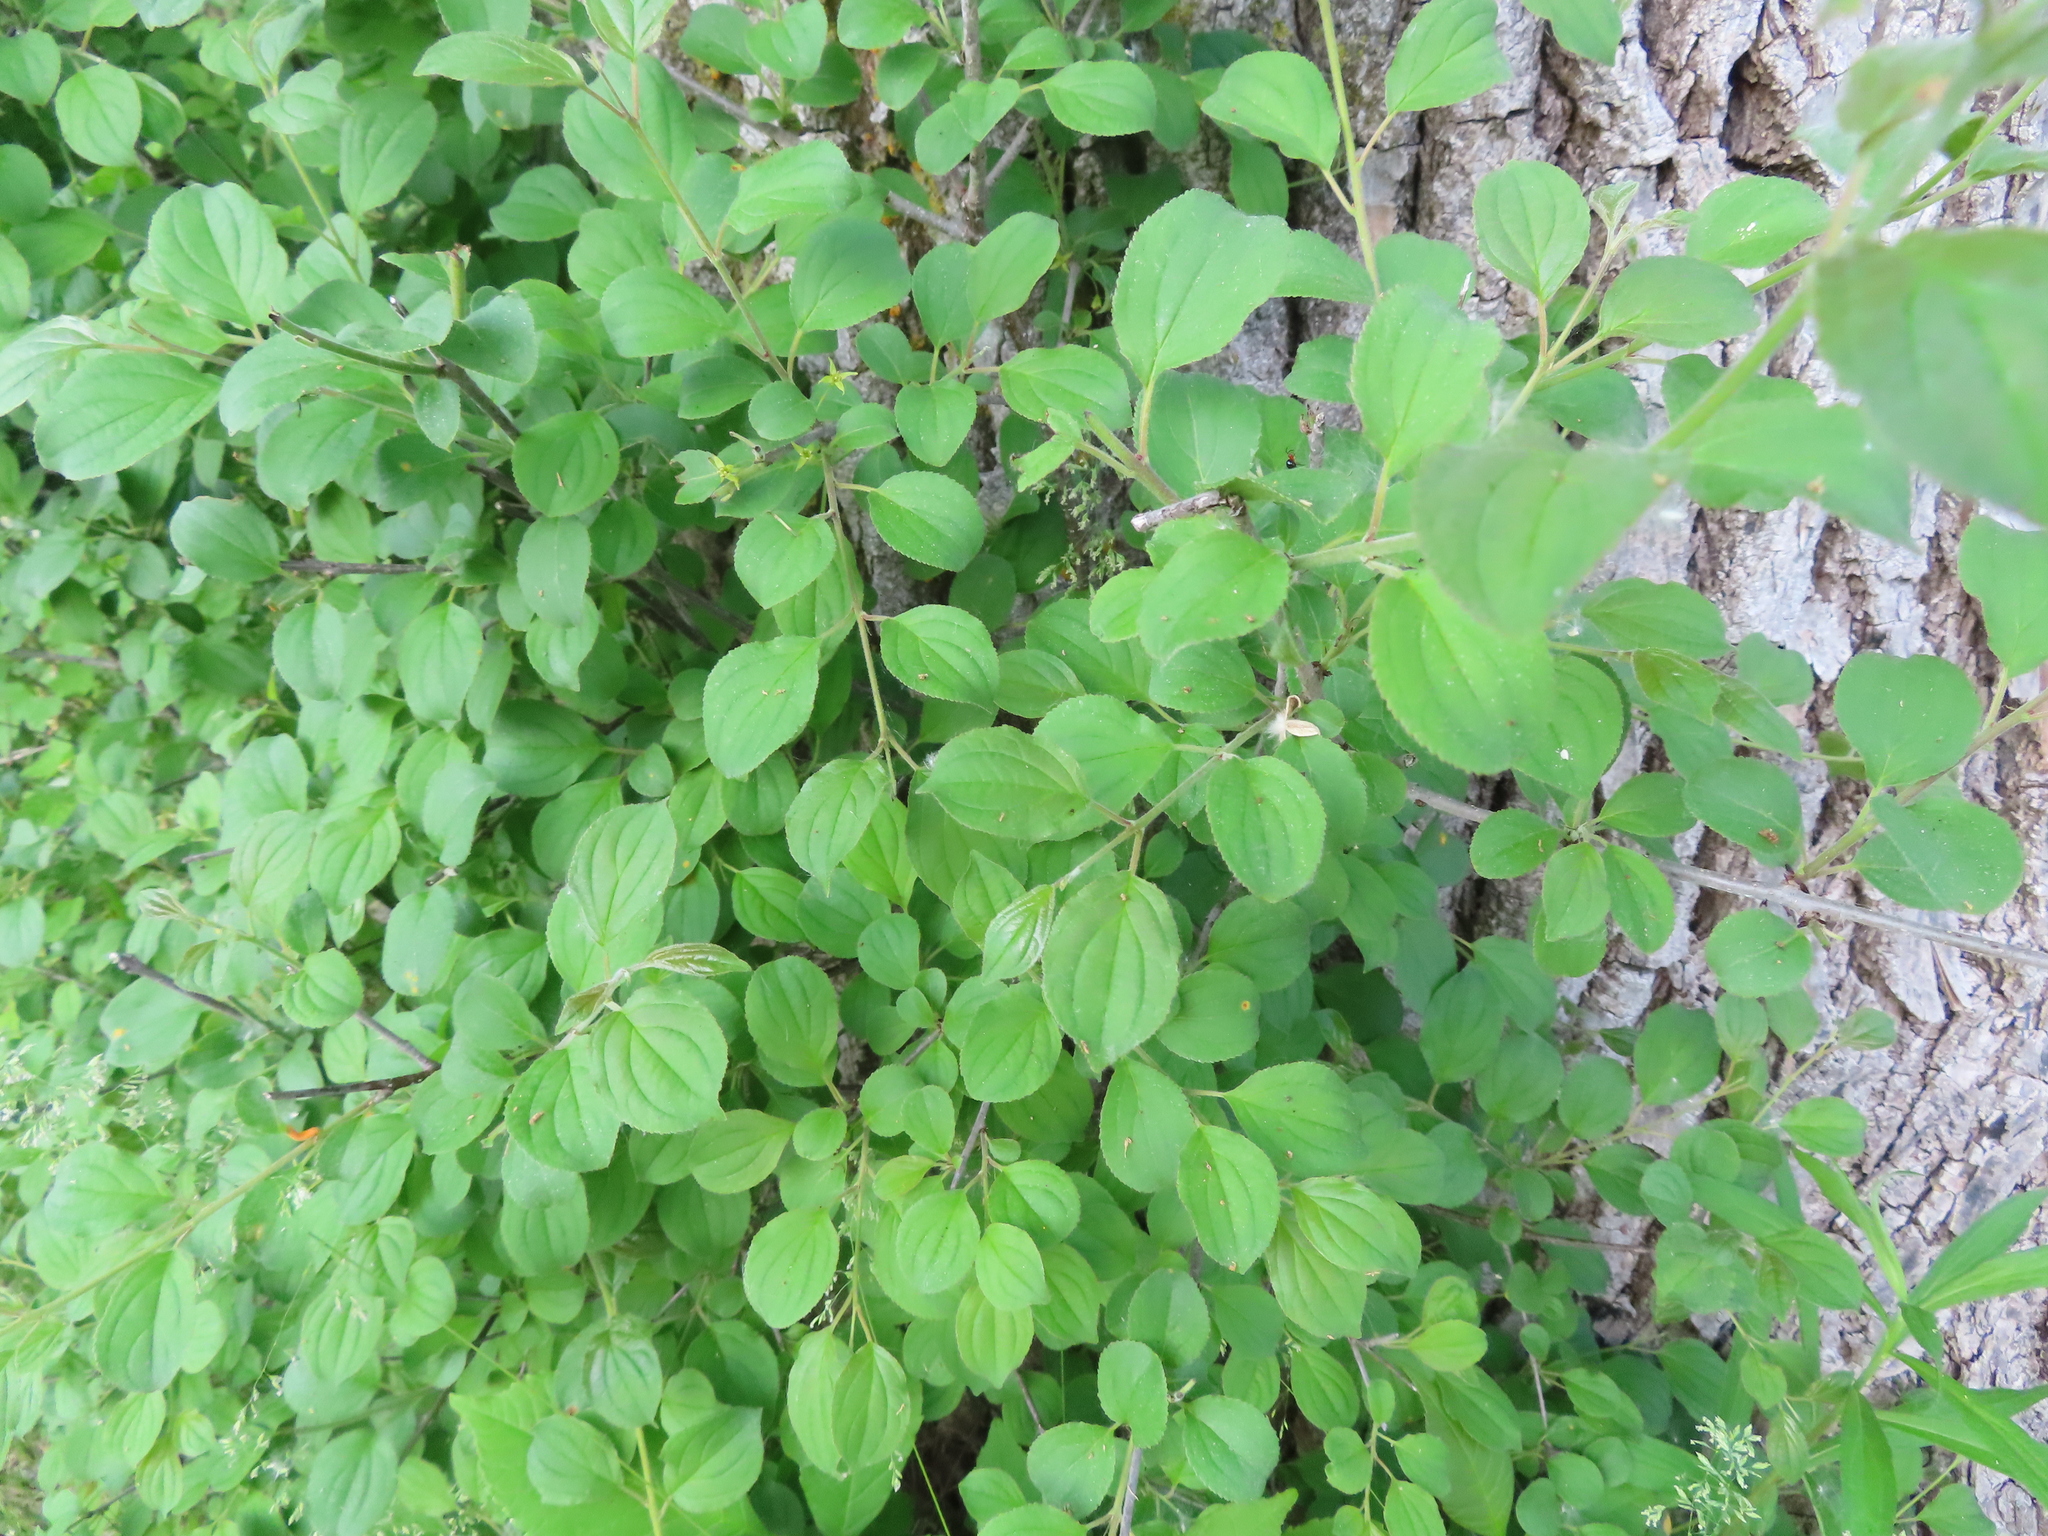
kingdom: Plantae
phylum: Tracheophyta
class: Magnoliopsida
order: Rosales
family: Rhamnaceae
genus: Rhamnus
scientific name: Rhamnus cathartica
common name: Common buckthorn
